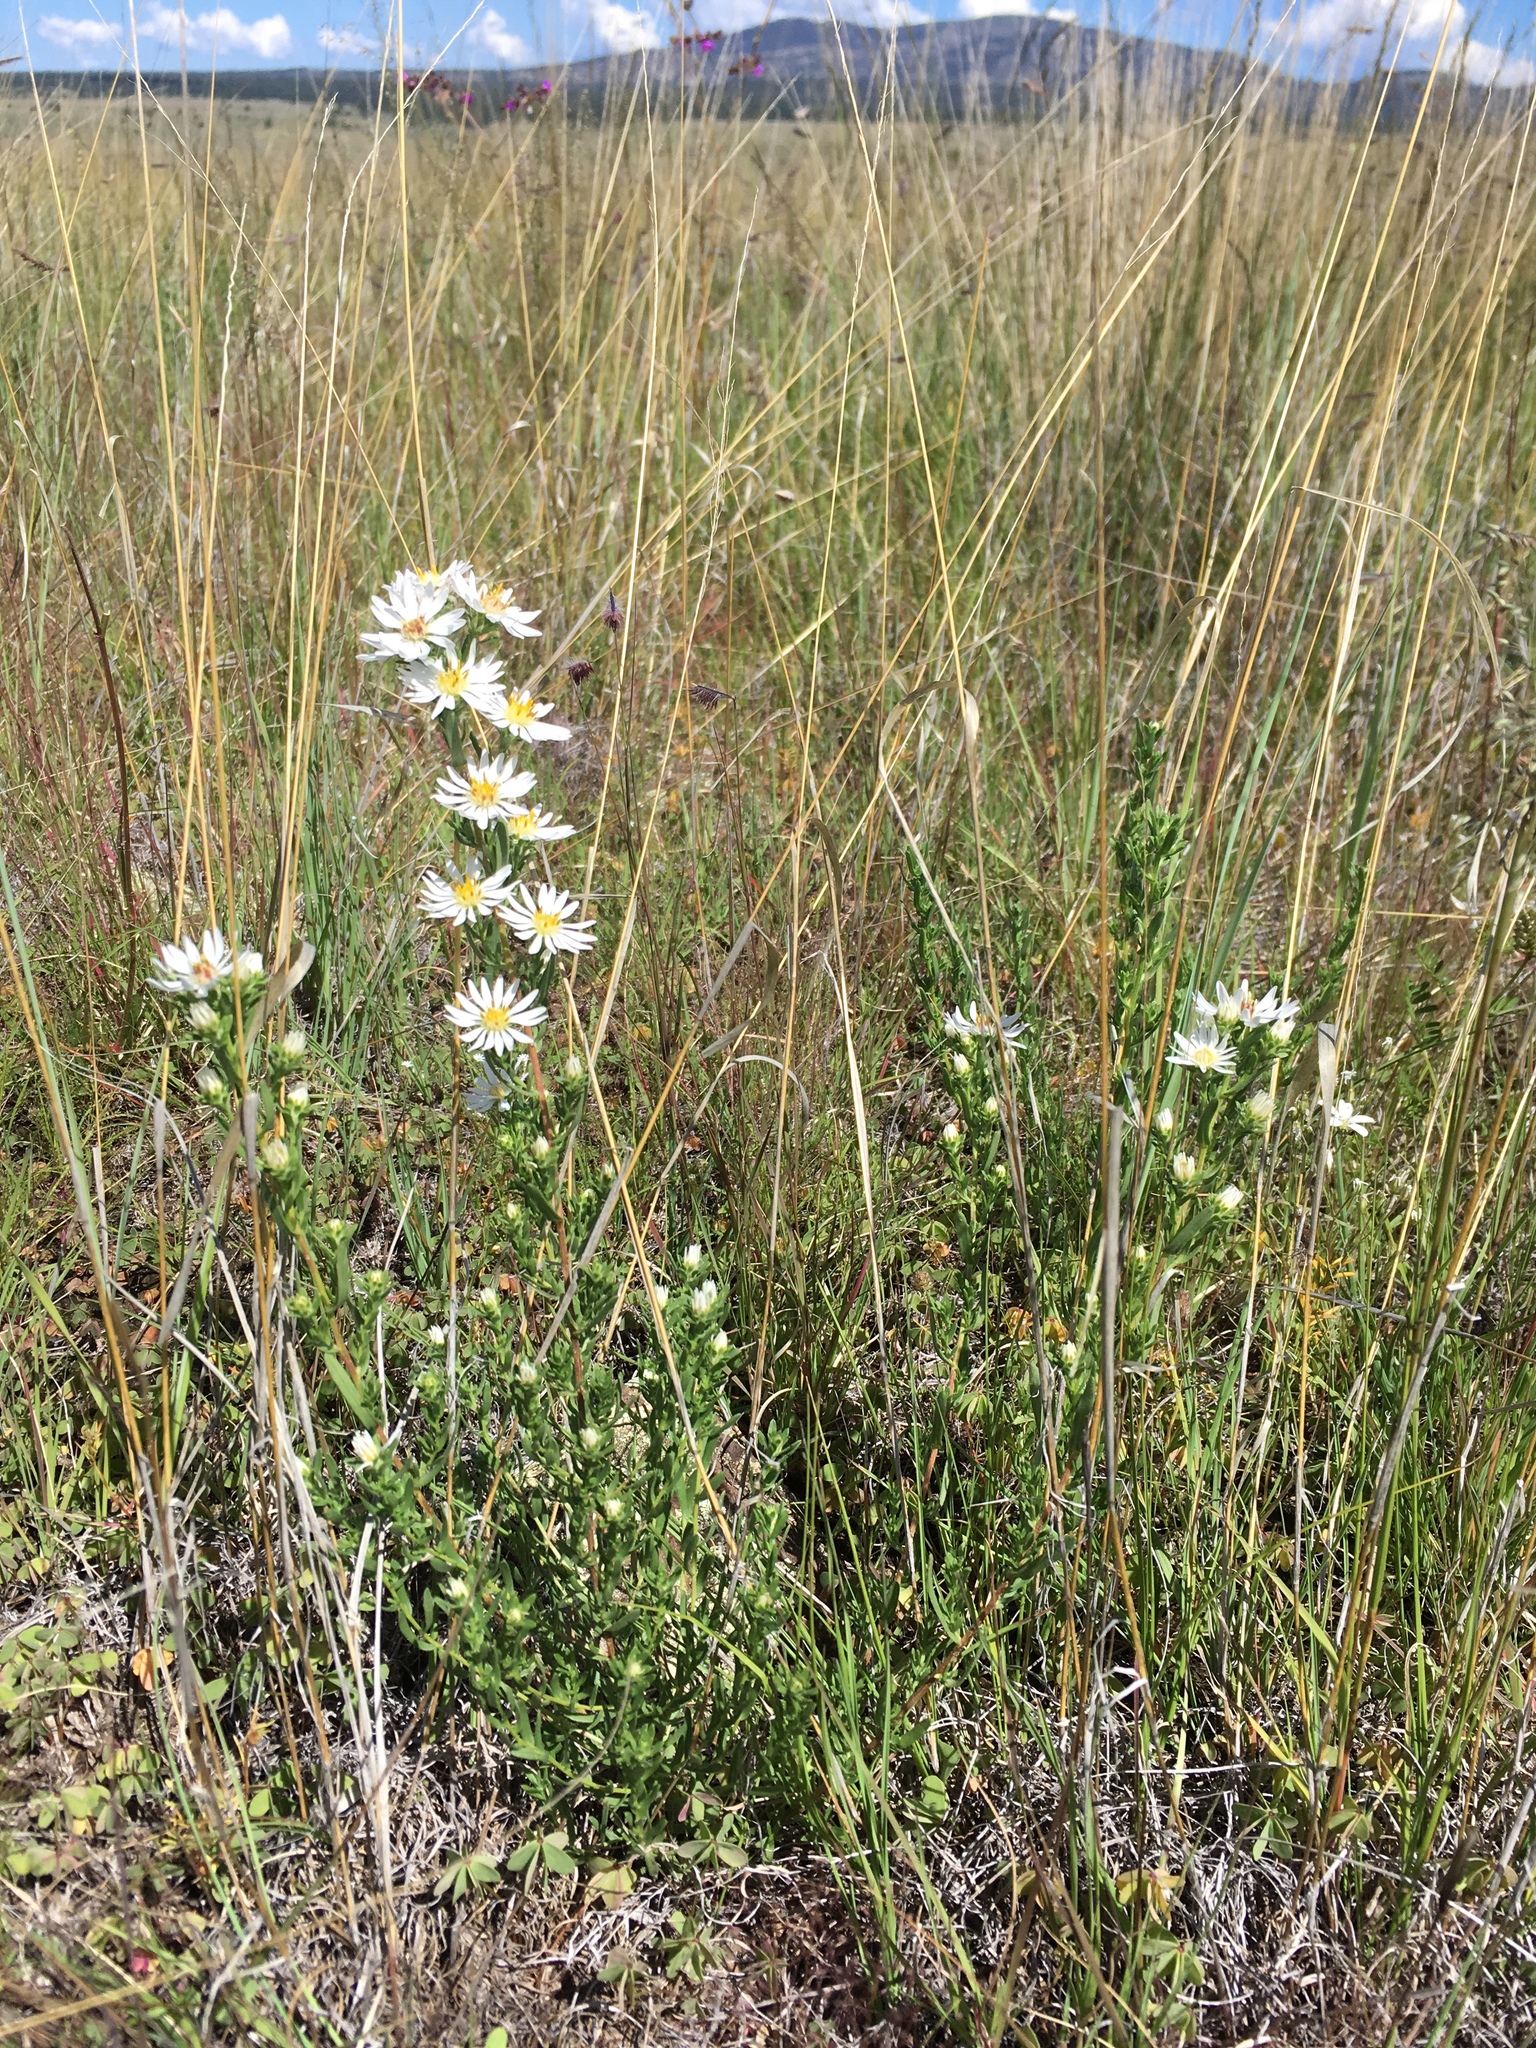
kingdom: Plantae
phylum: Tracheophyta
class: Magnoliopsida
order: Asterales
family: Asteraceae
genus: Symphyotrichum
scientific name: Symphyotrichum ericoides
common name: Heath aster
